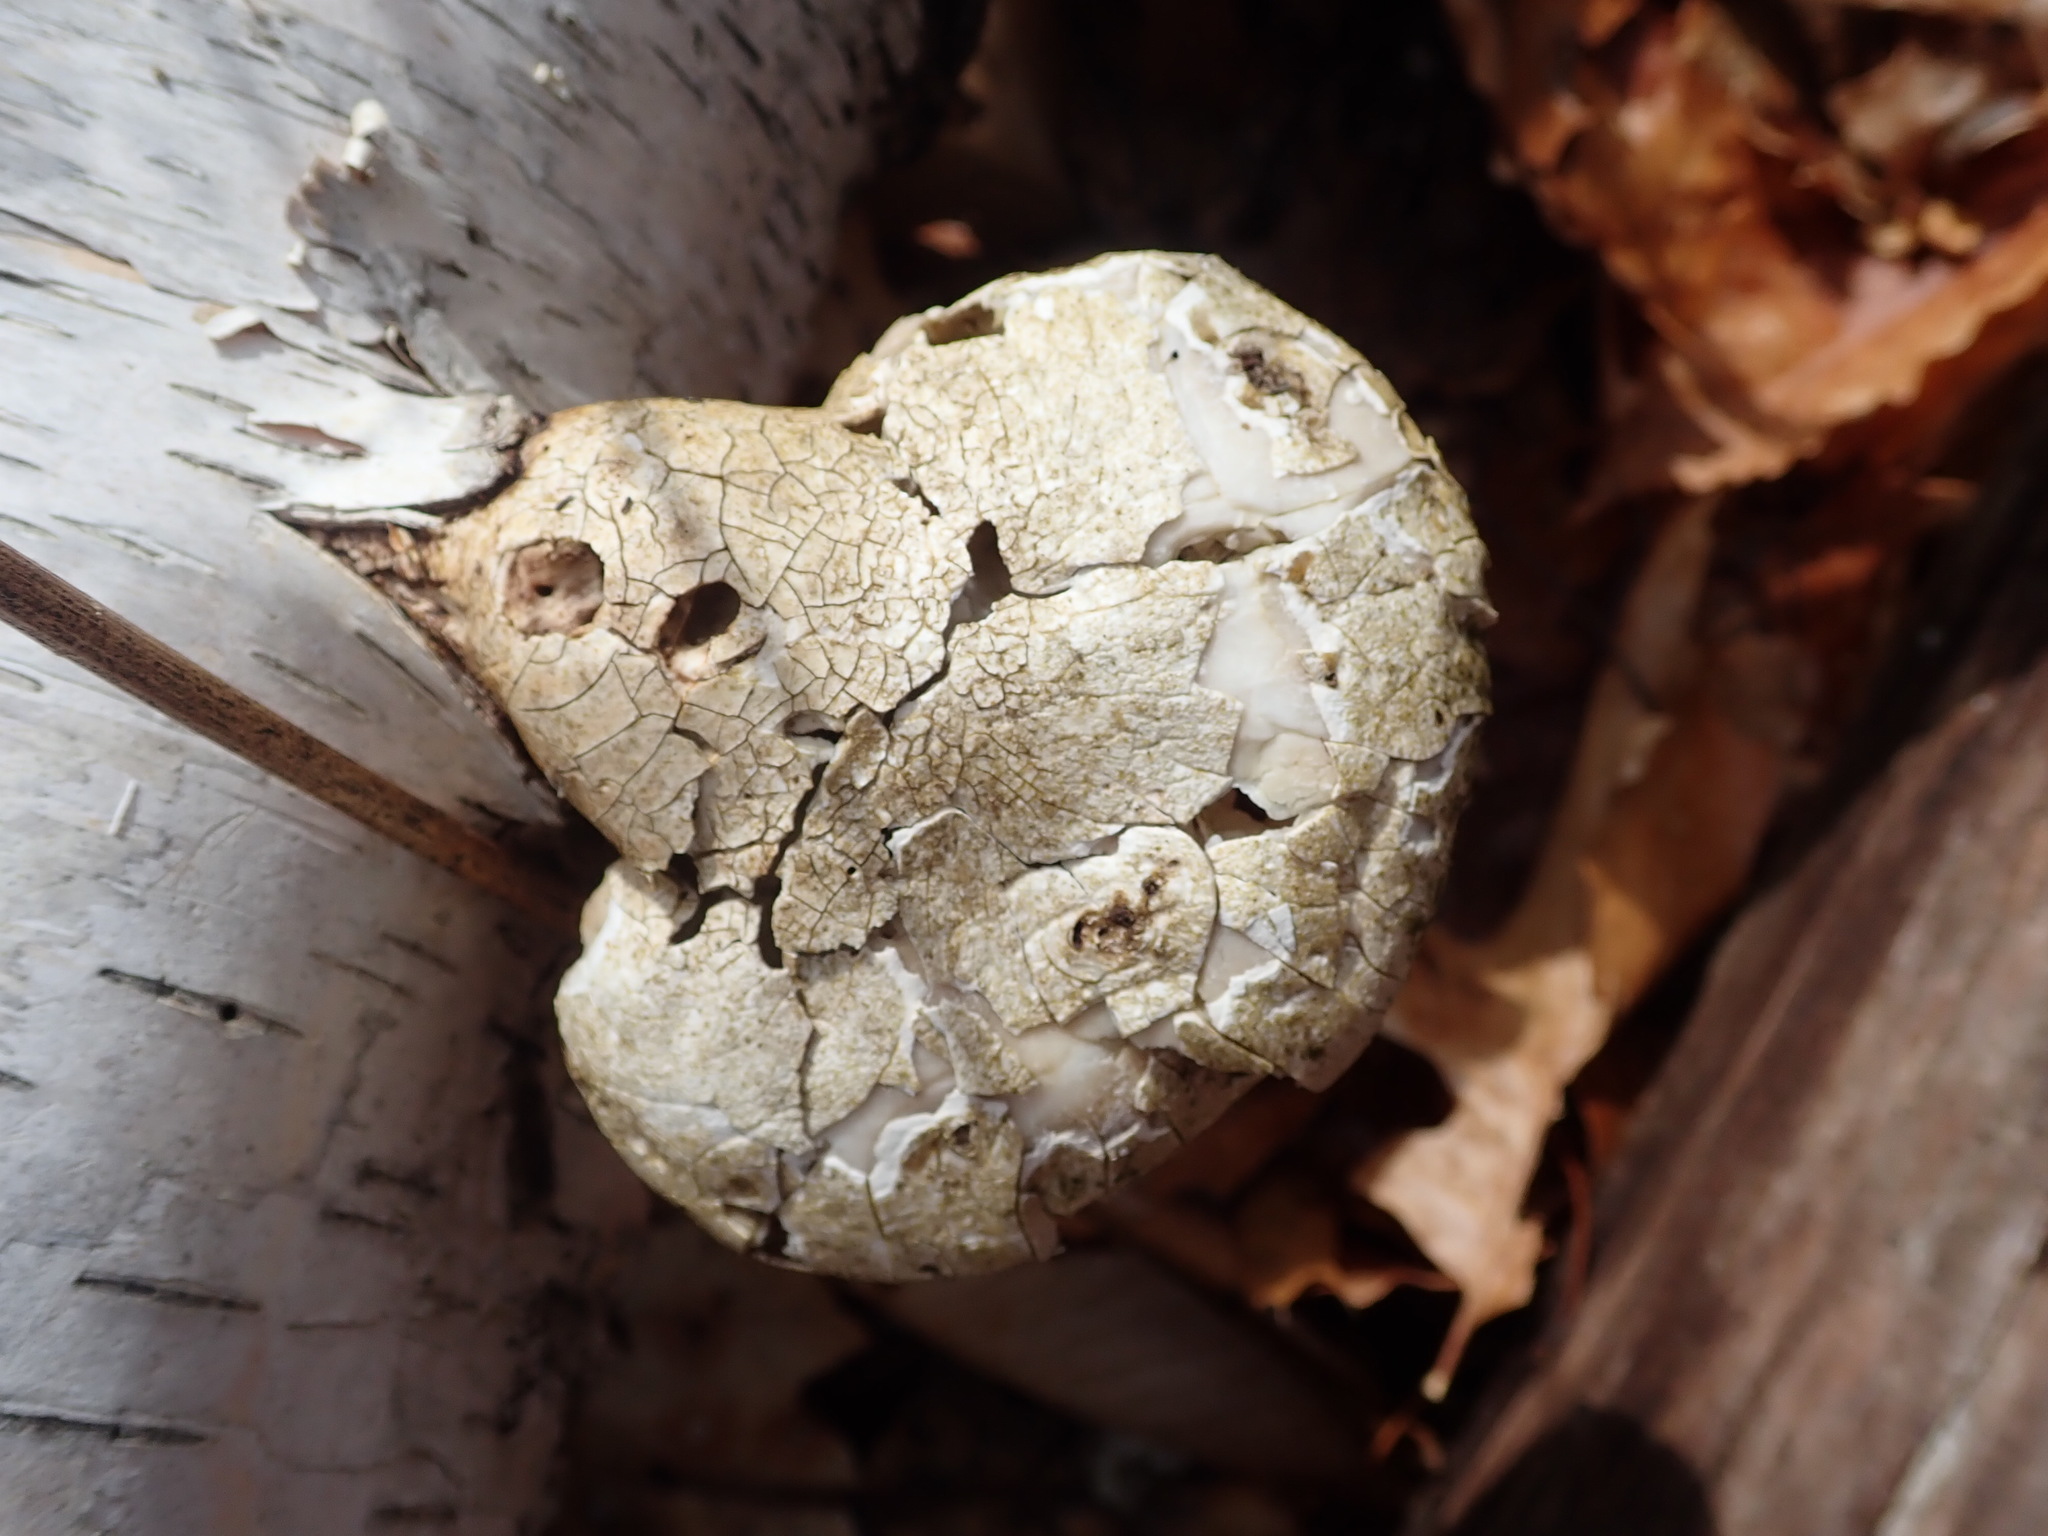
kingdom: Fungi
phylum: Basidiomycota
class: Agaricomycetes
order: Polyporales
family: Fomitopsidaceae
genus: Fomitopsis
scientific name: Fomitopsis betulina
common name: Birch polypore
